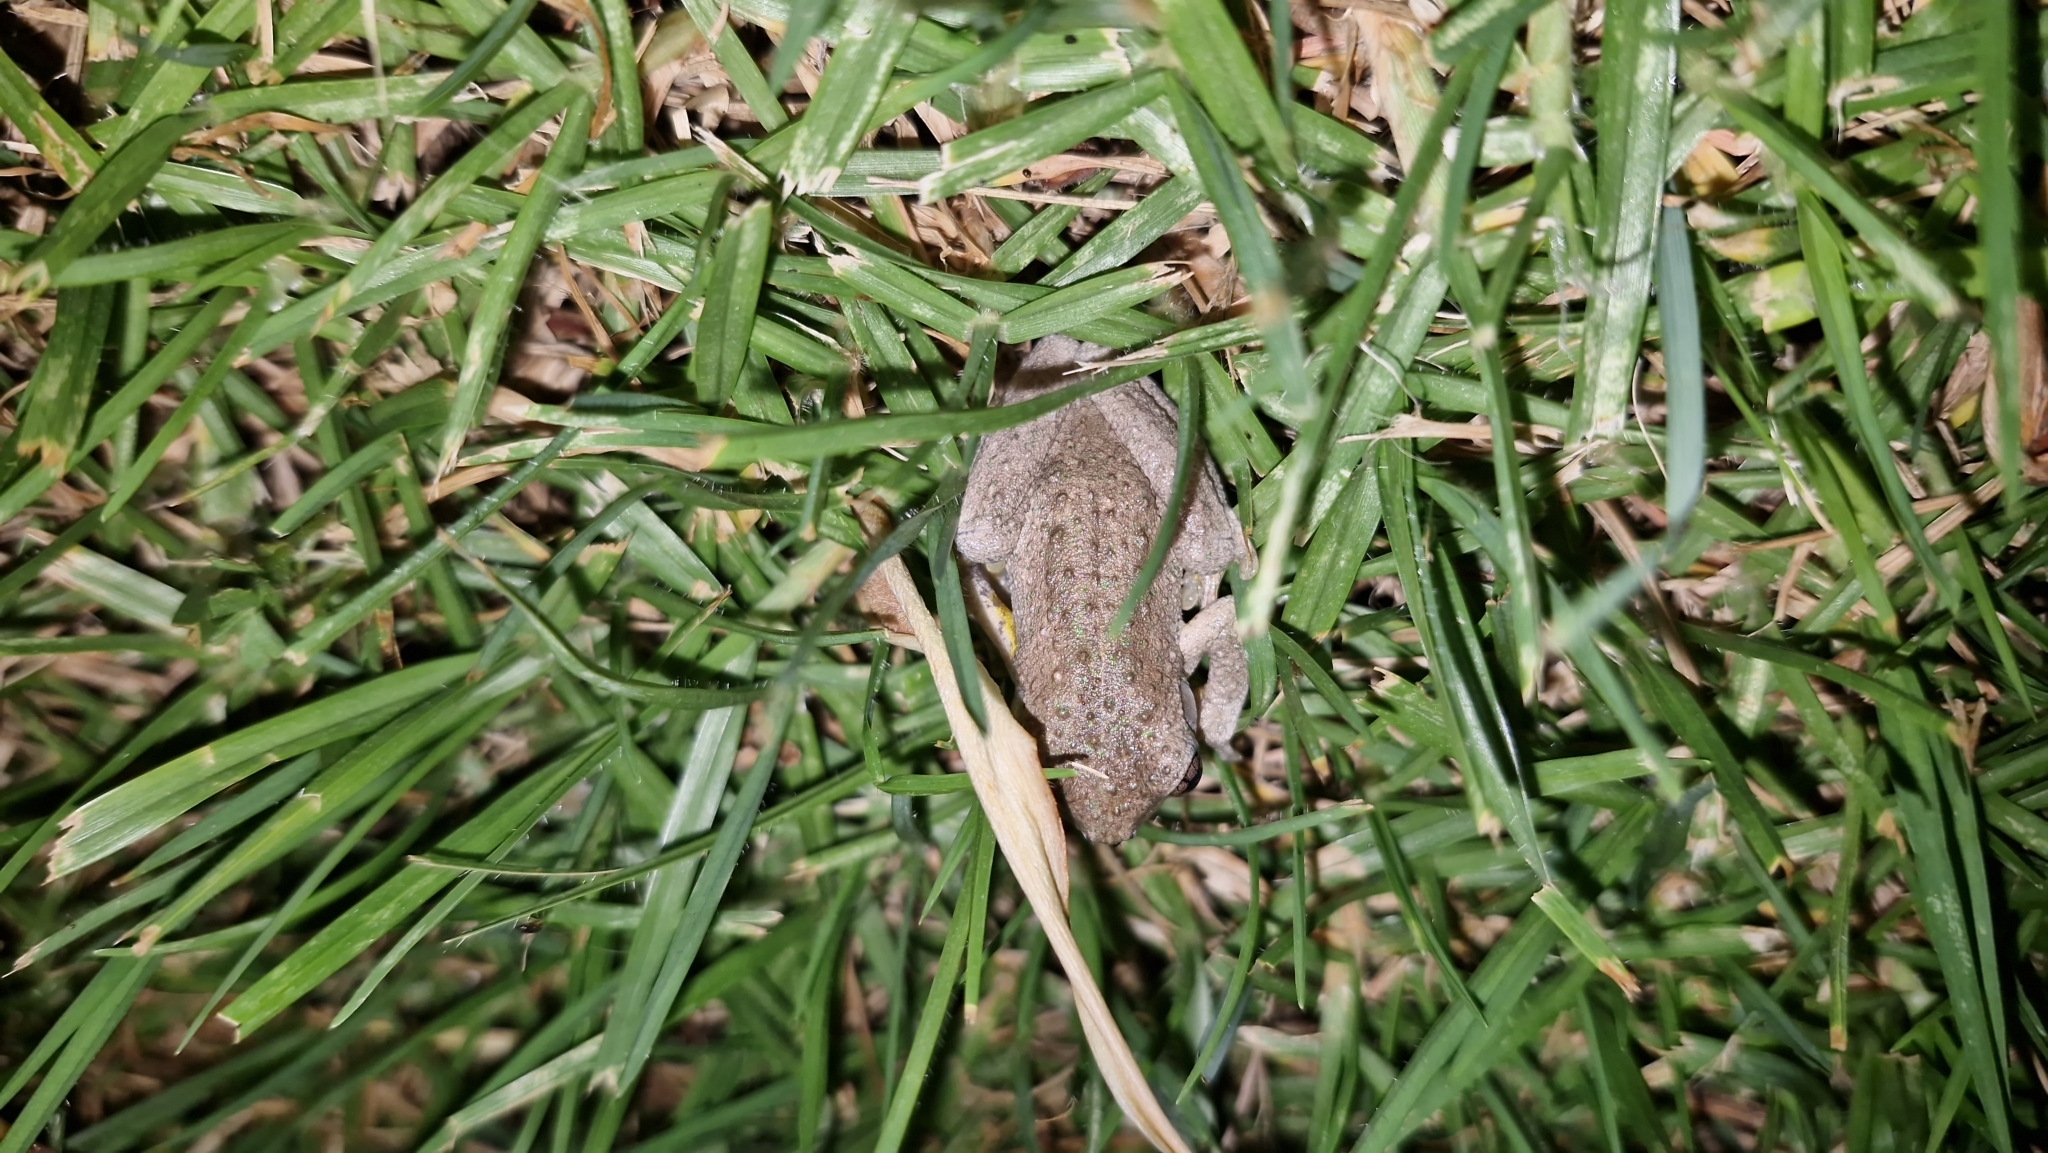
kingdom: Animalia
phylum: Chordata
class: Amphibia
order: Anura
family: Pelodryadidae
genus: Litoria
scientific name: Litoria peronii
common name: Emerald spotted treefrog
